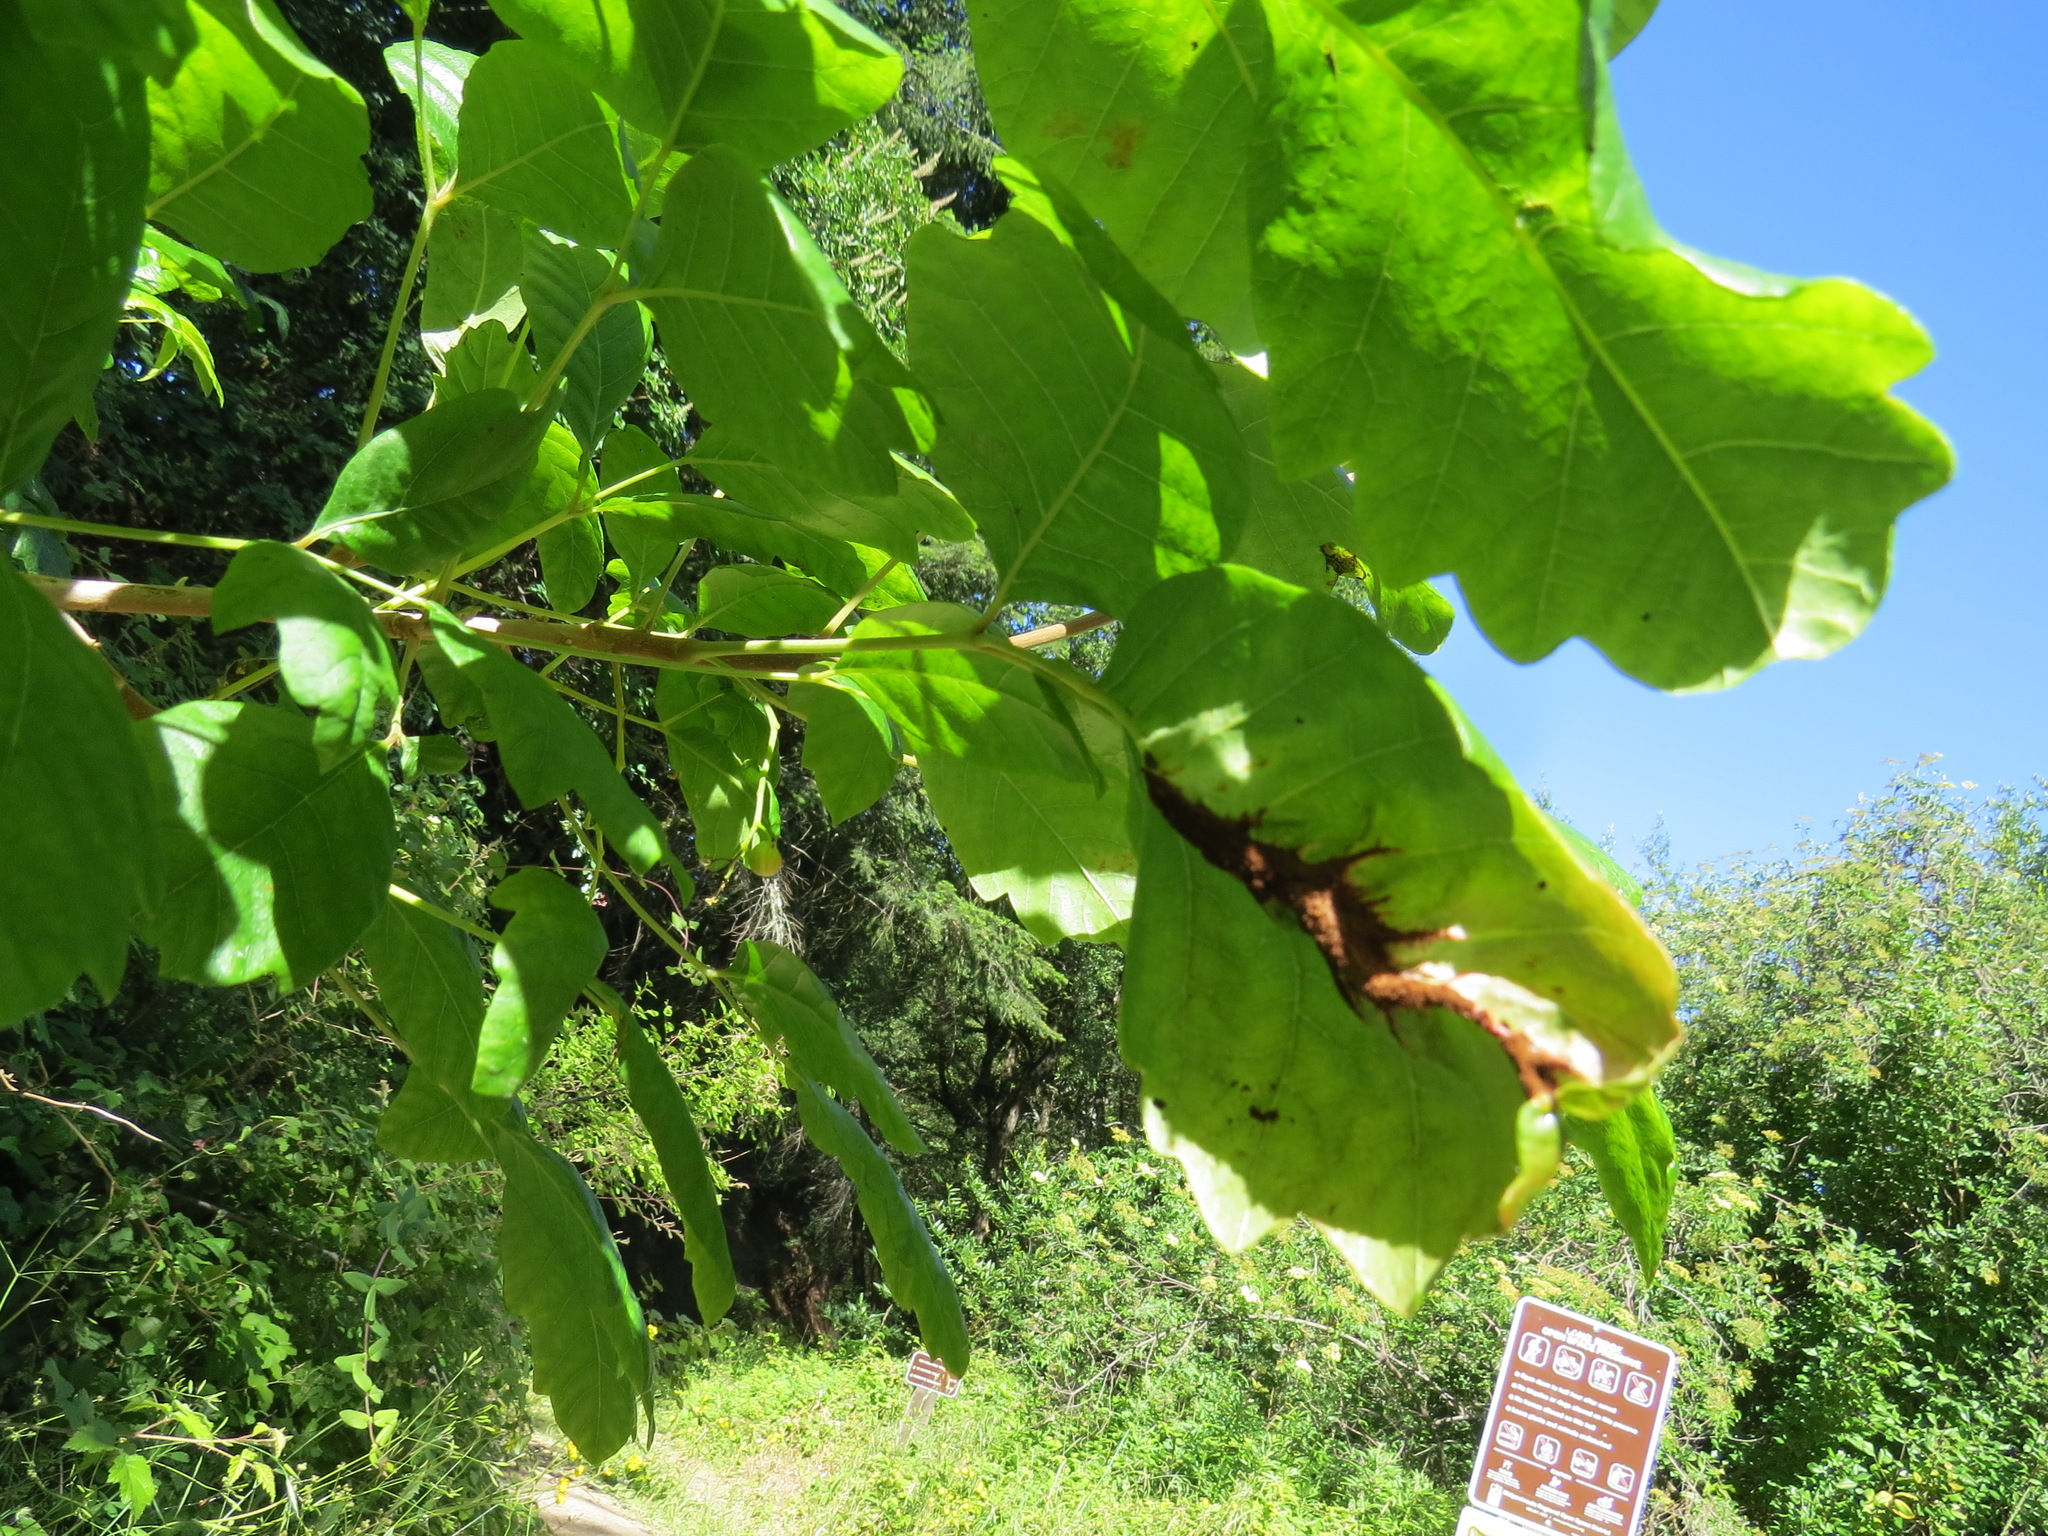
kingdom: Fungi
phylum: Basidiomycota
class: Pucciniomycetes
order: Pucciniales
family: Pileolariaceae
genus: Pileolaria
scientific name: Pileolaria brevipes
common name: Poison ivy rust
